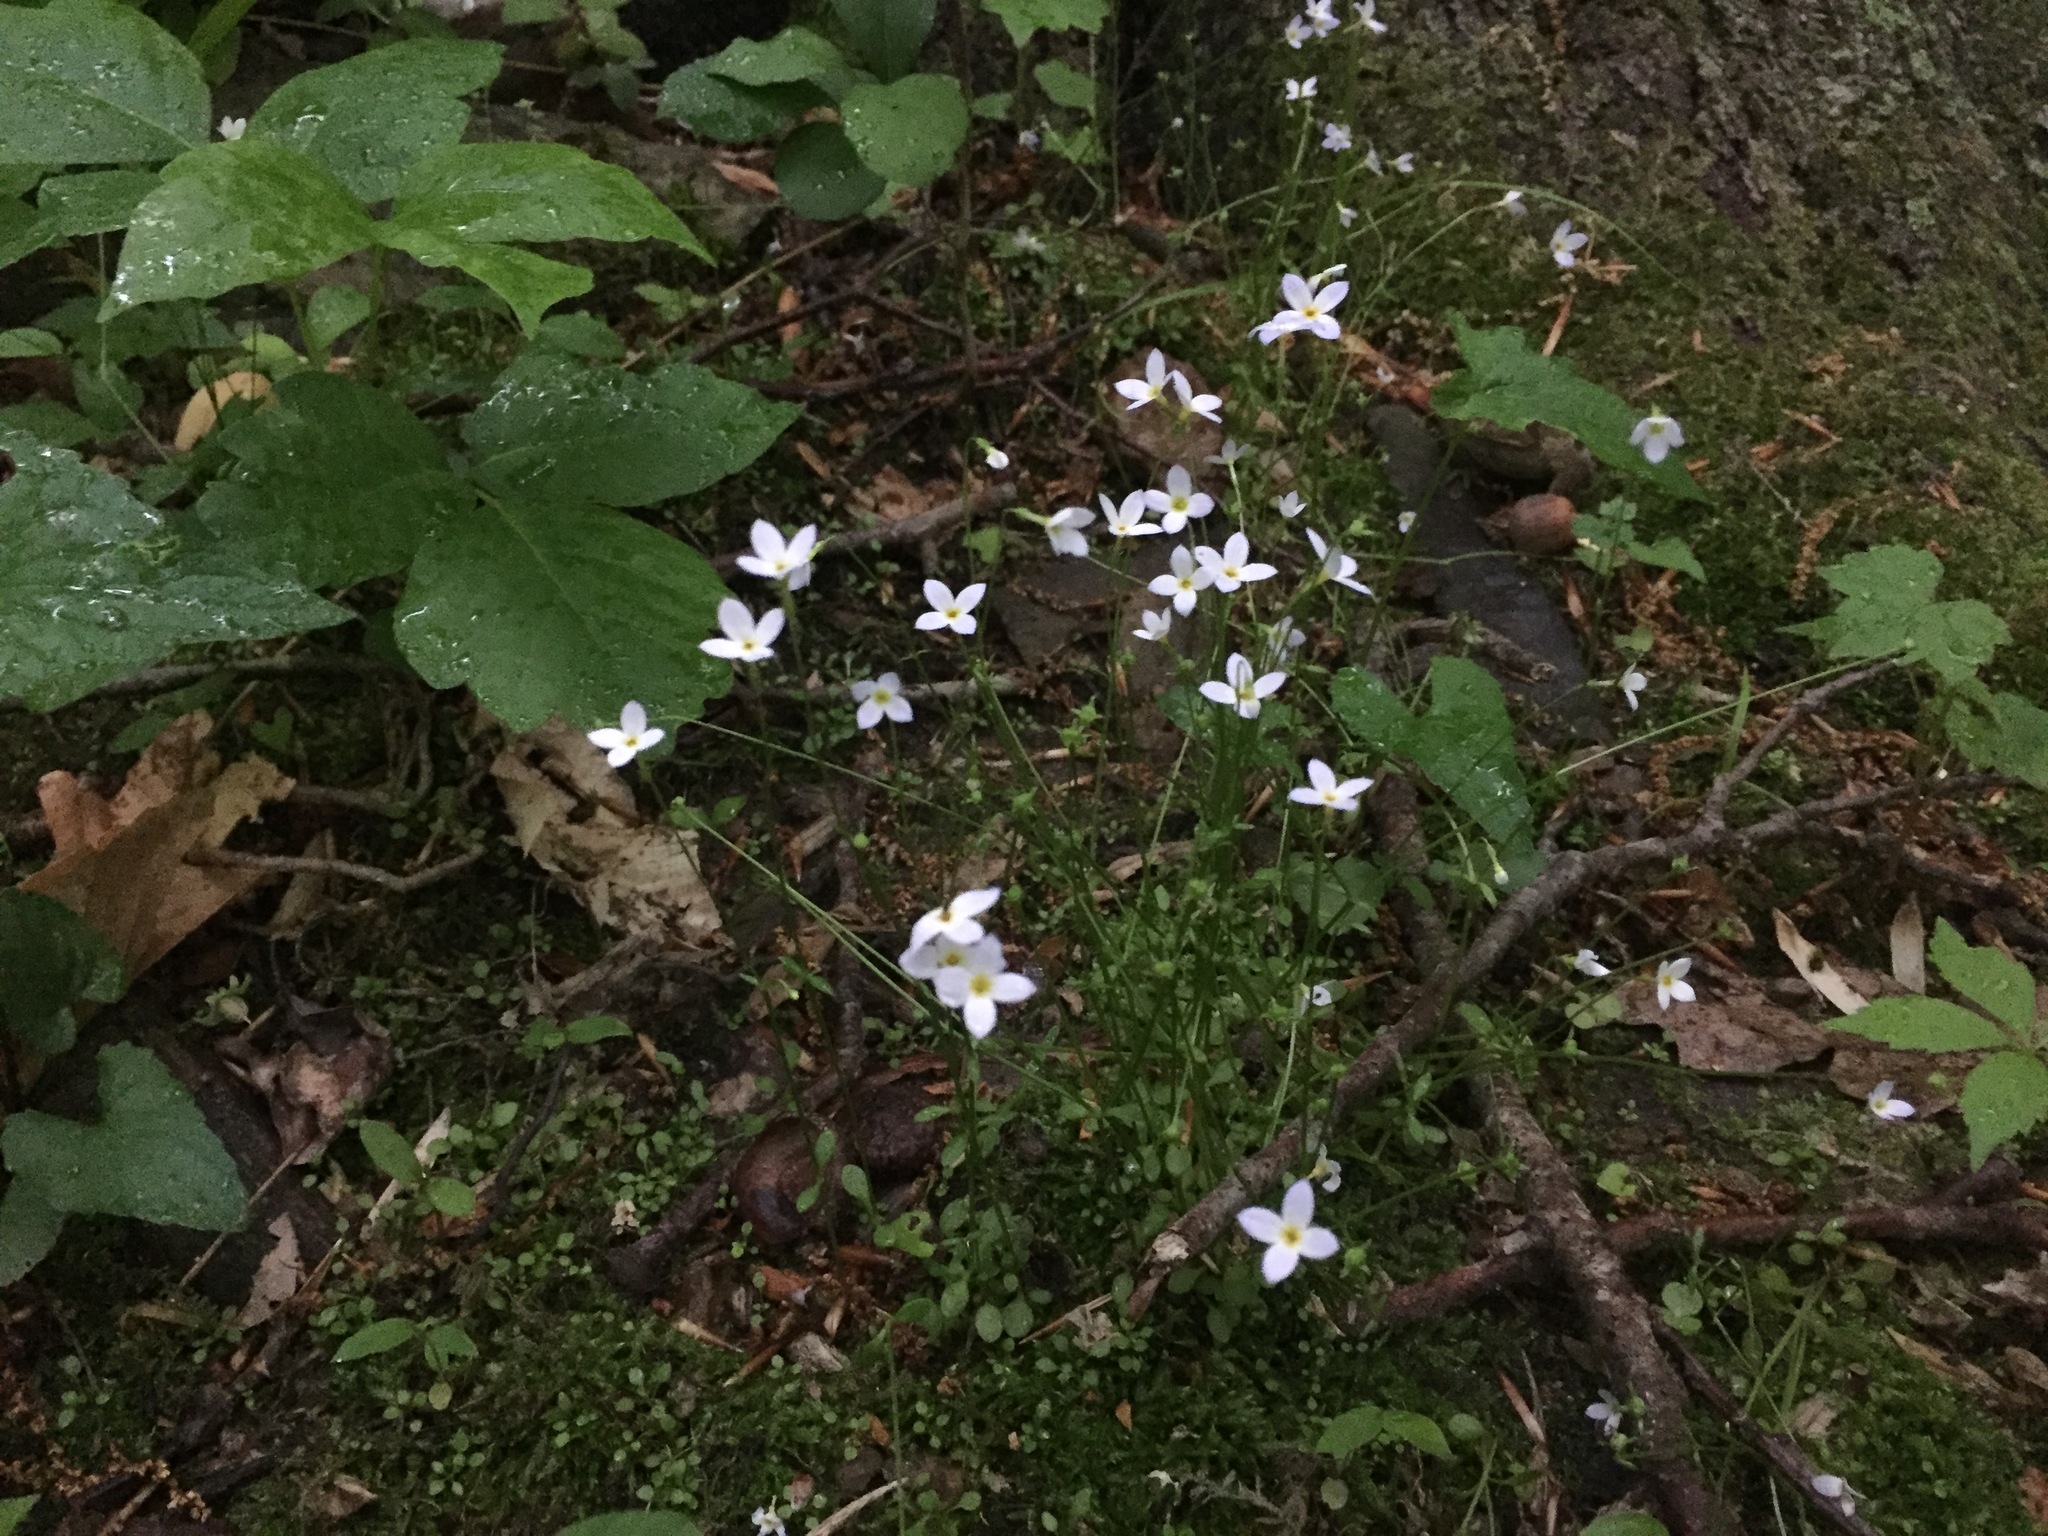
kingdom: Plantae
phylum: Tracheophyta
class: Magnoliopsida
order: Gentianales
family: Rubiaceae
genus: Houstonia
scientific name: Houstonia caerulea
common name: Bluets
